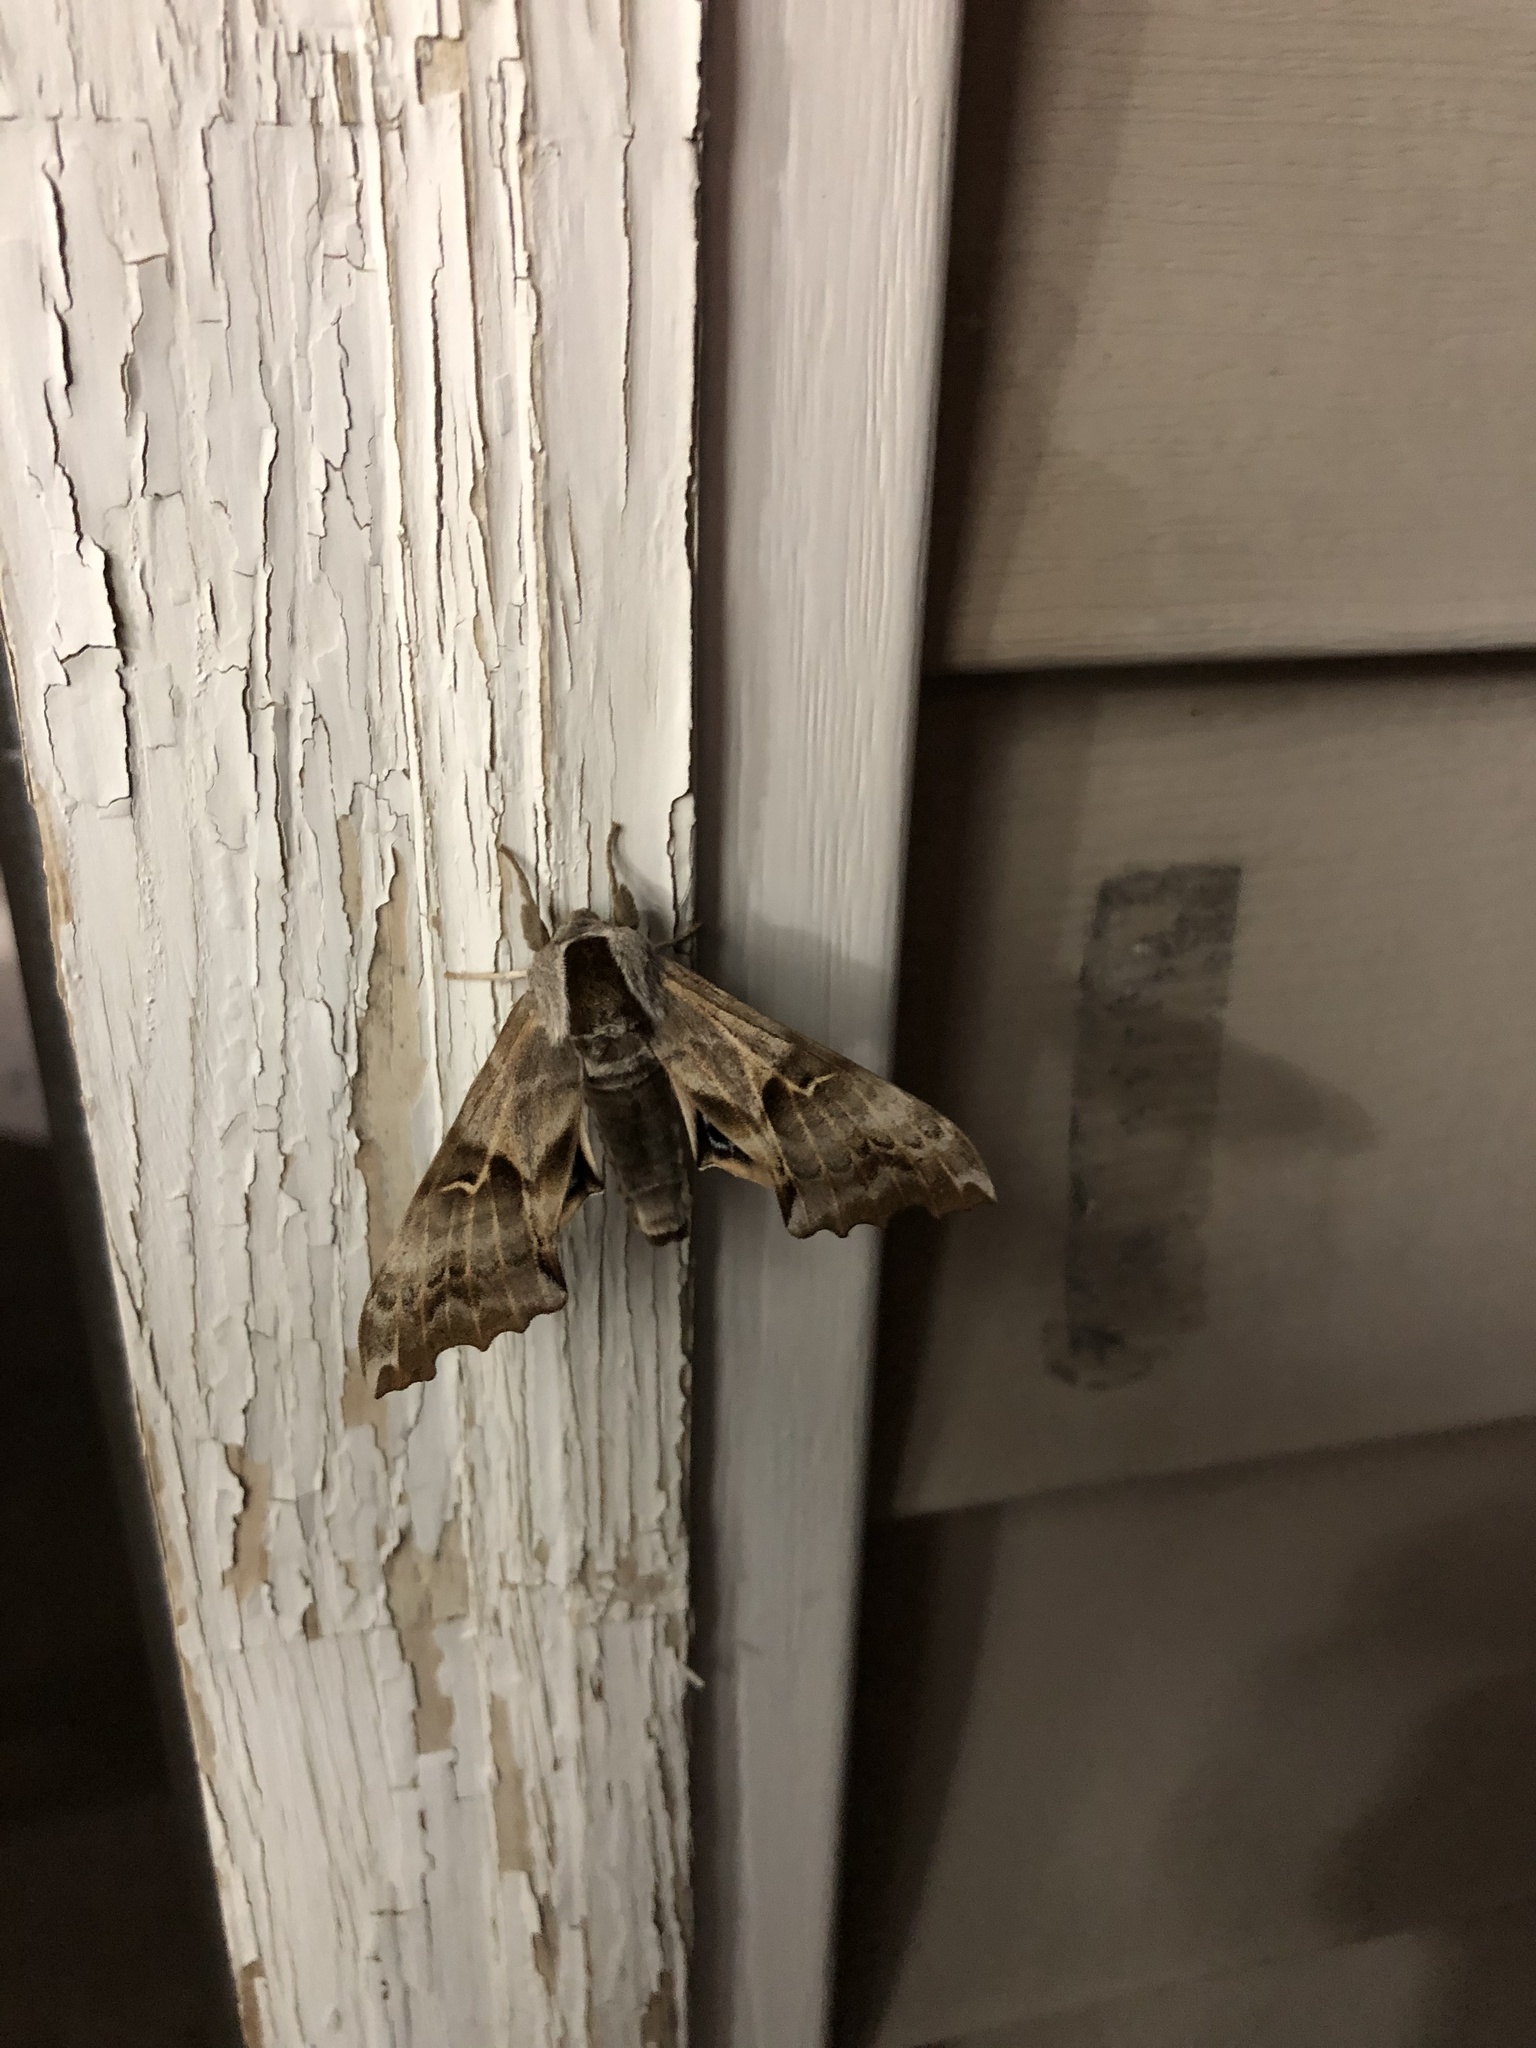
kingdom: Animalia
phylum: Arthropoda
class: Insecta
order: Lepidoptera
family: Sphingidae
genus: Smerinthus
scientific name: Smerinthus cerisyi
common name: Cerisy's sphinx moth
